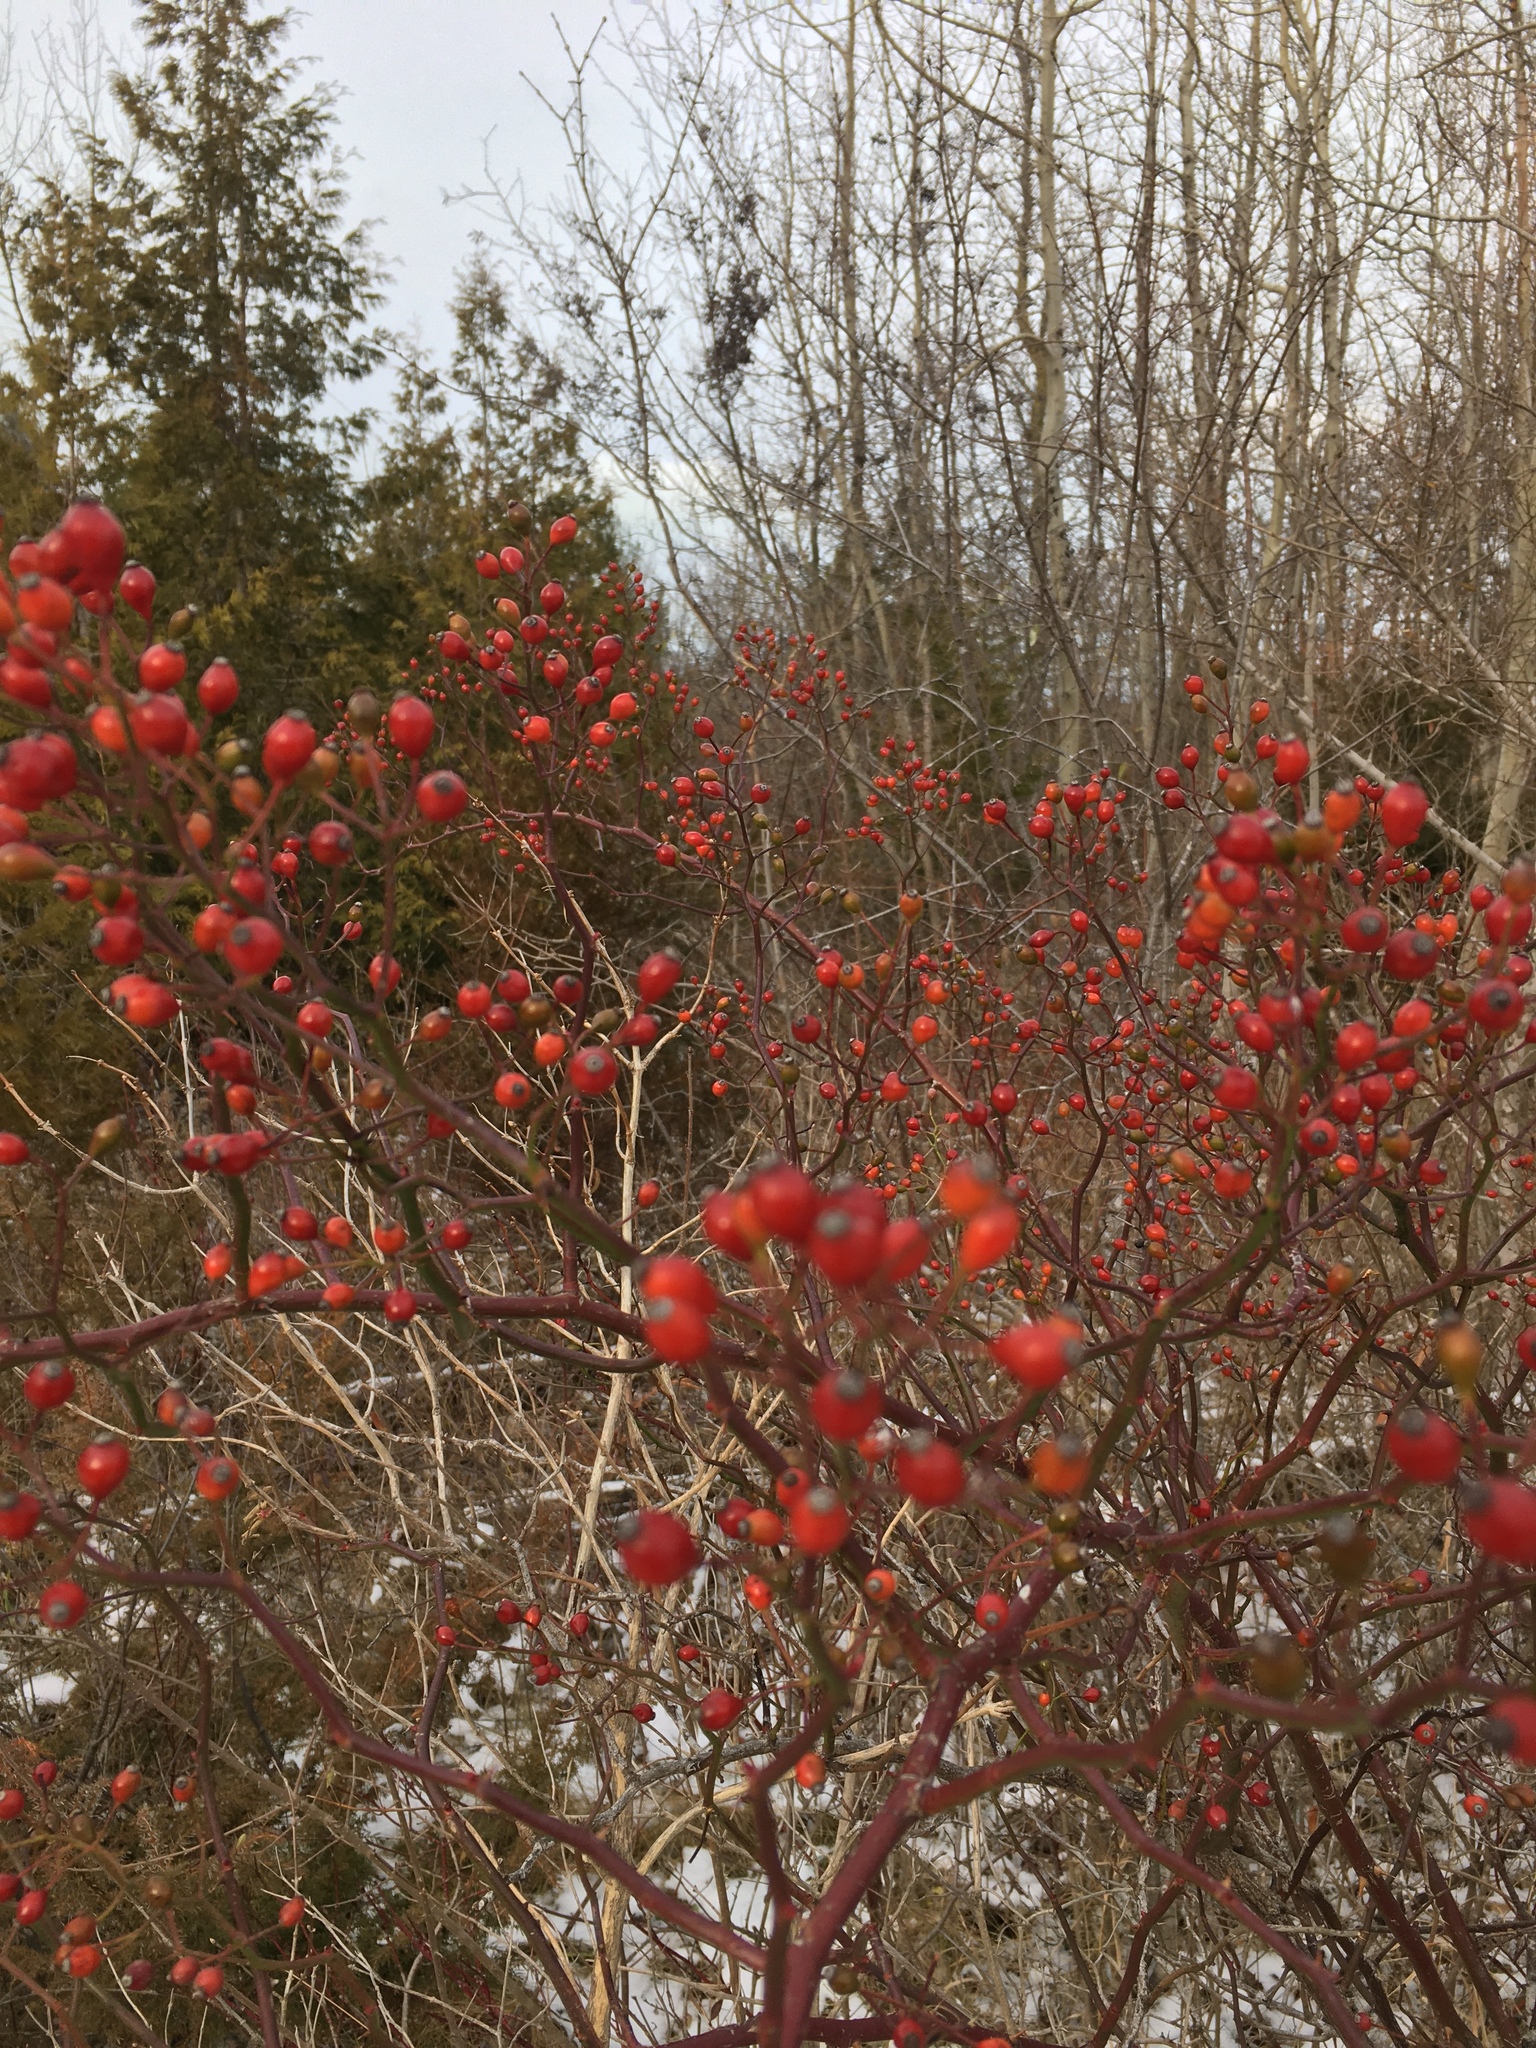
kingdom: Plantae
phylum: Tracheophyta
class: Magnoliopsida
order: Rosales
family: Rosaceae
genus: Rosa
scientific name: Rosa multiflora
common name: Multiflora rose
